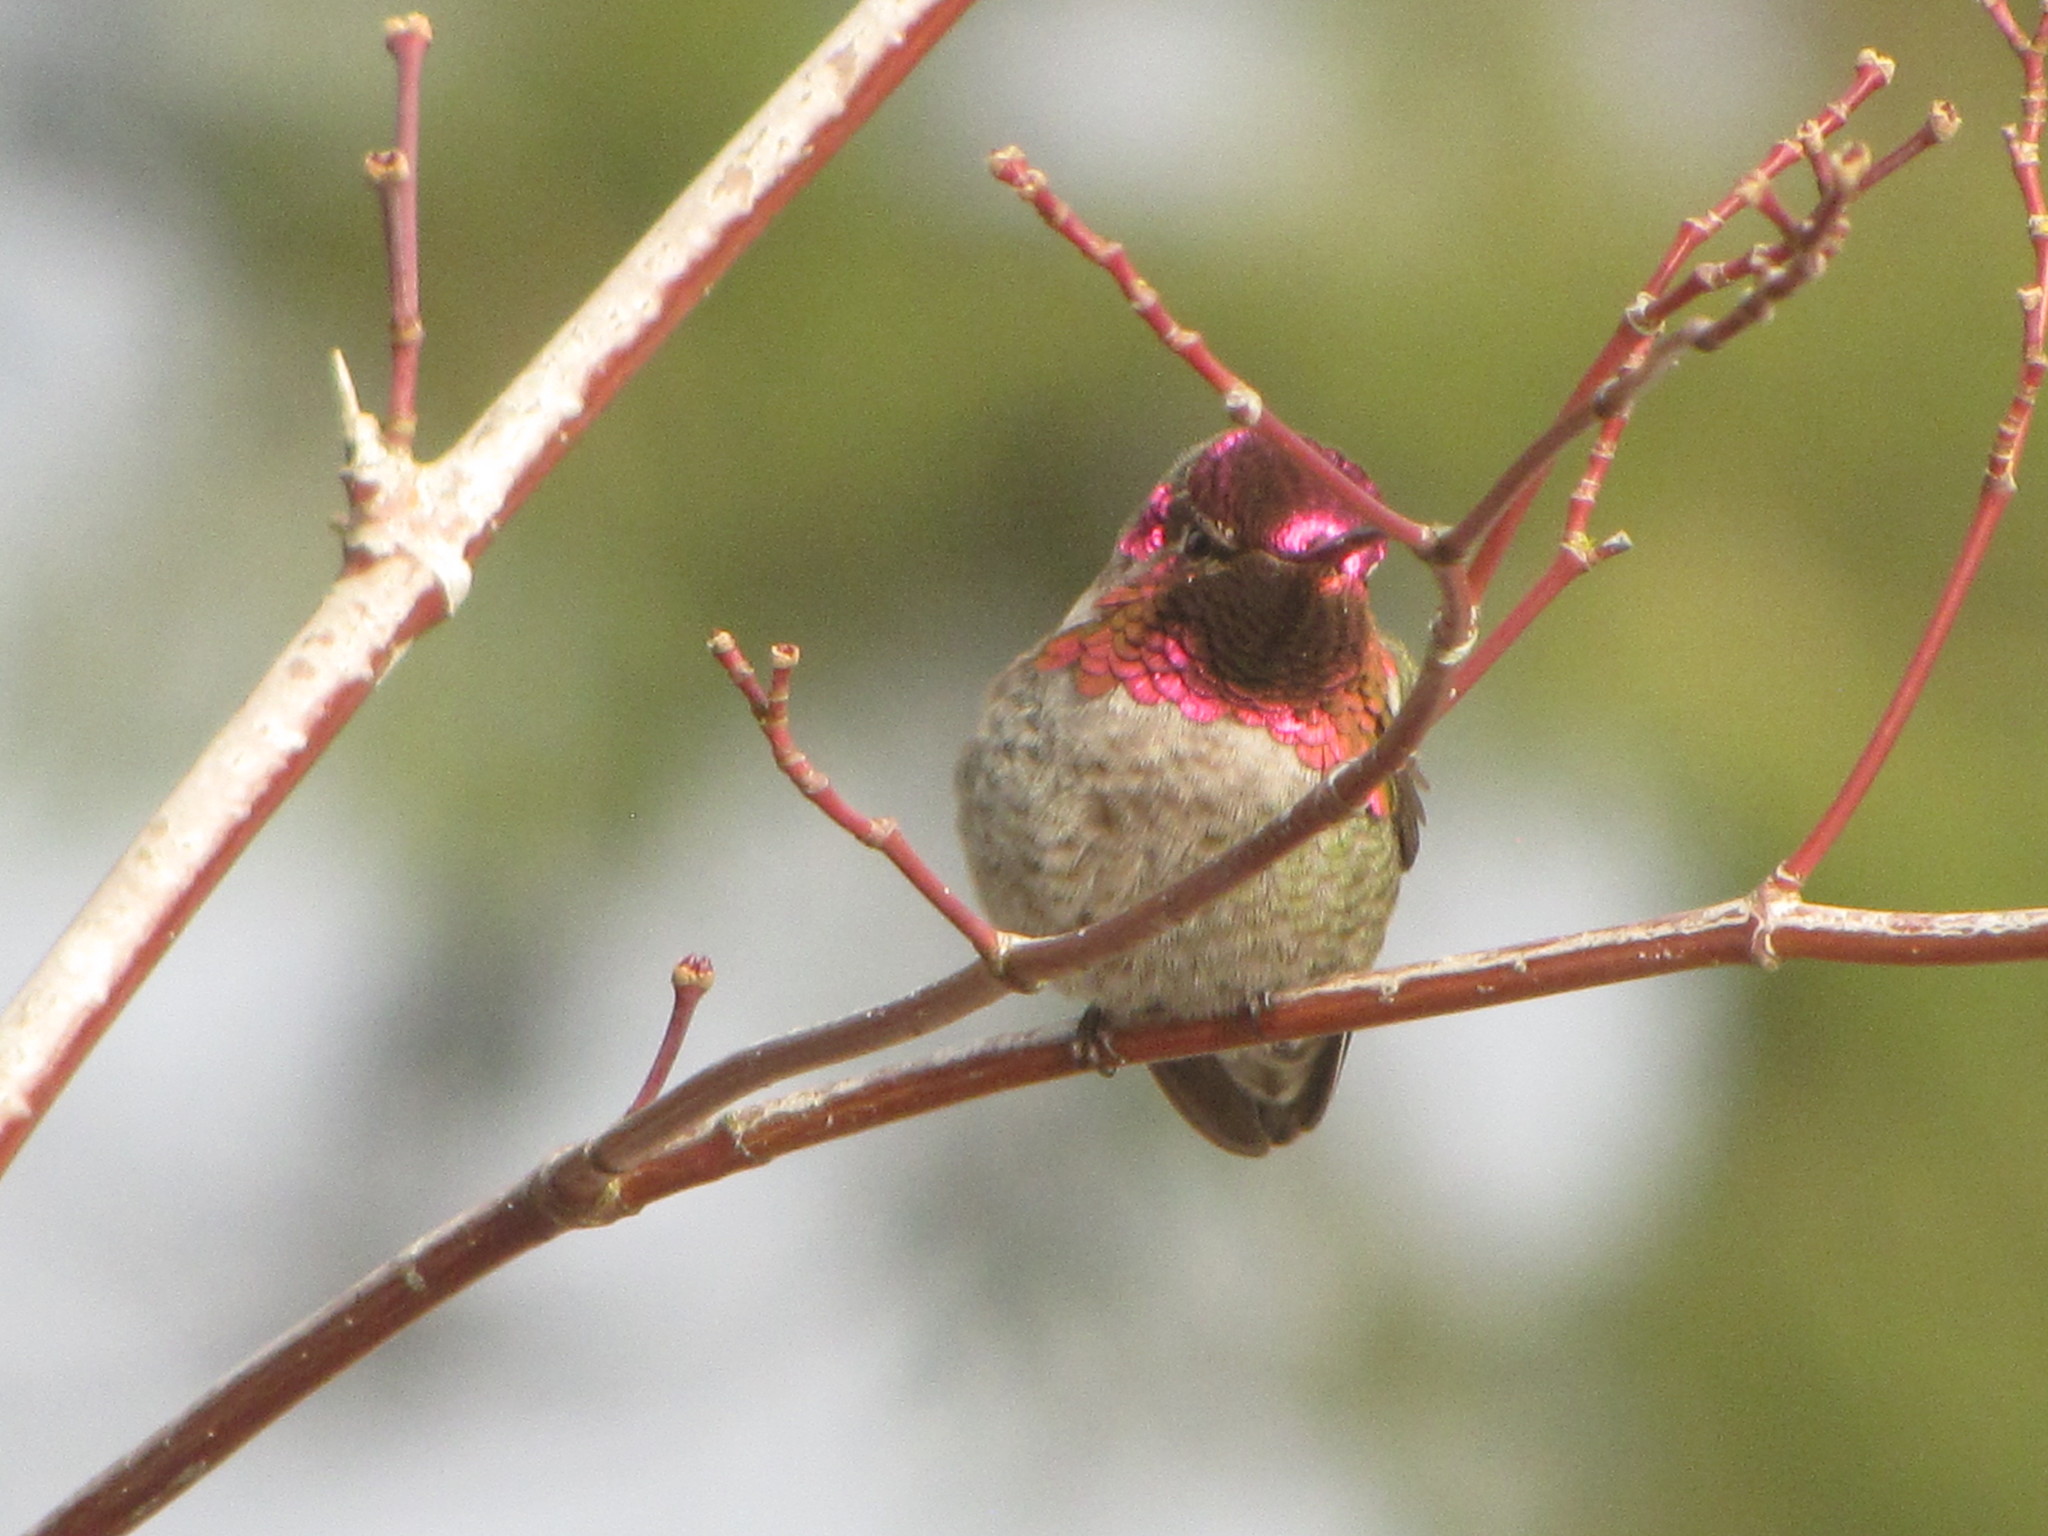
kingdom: Animalia
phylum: Chordata
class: Aves
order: Apodiformes
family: Trochilidae
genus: Calypte
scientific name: Calypte anna
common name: Anna's hummingbird
